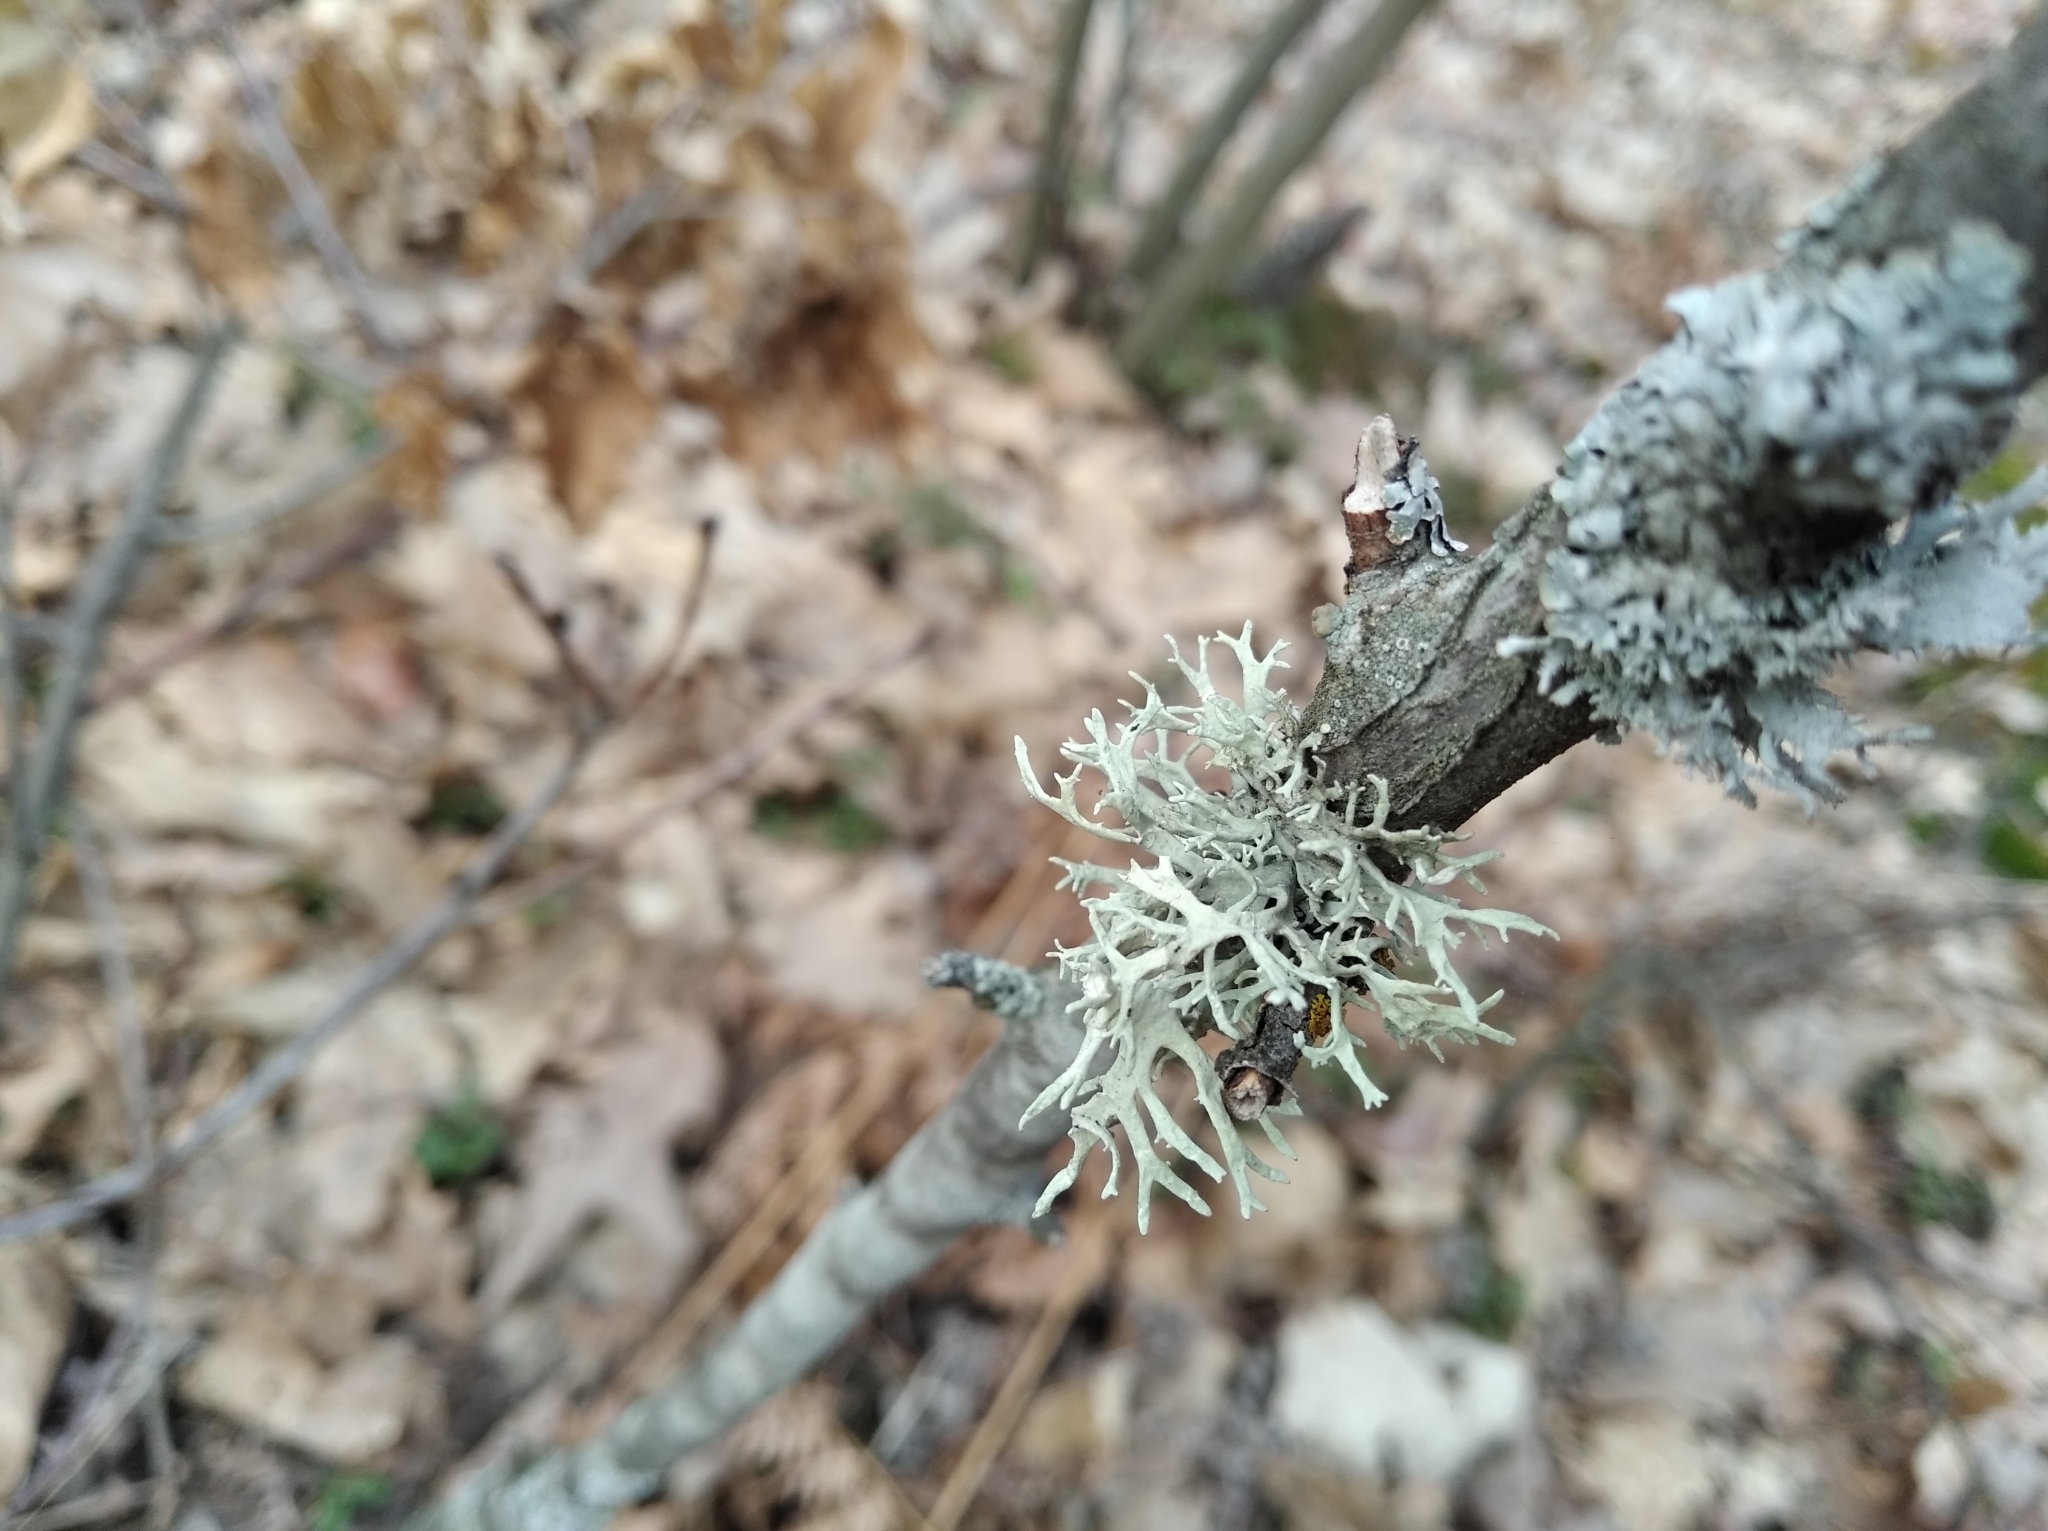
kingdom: Fungi
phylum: Ascomycota
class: Lecanoromycetes
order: Lecanorales
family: Parmeliaceae
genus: Evernia
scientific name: Evernia prunastri
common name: Oak moss
